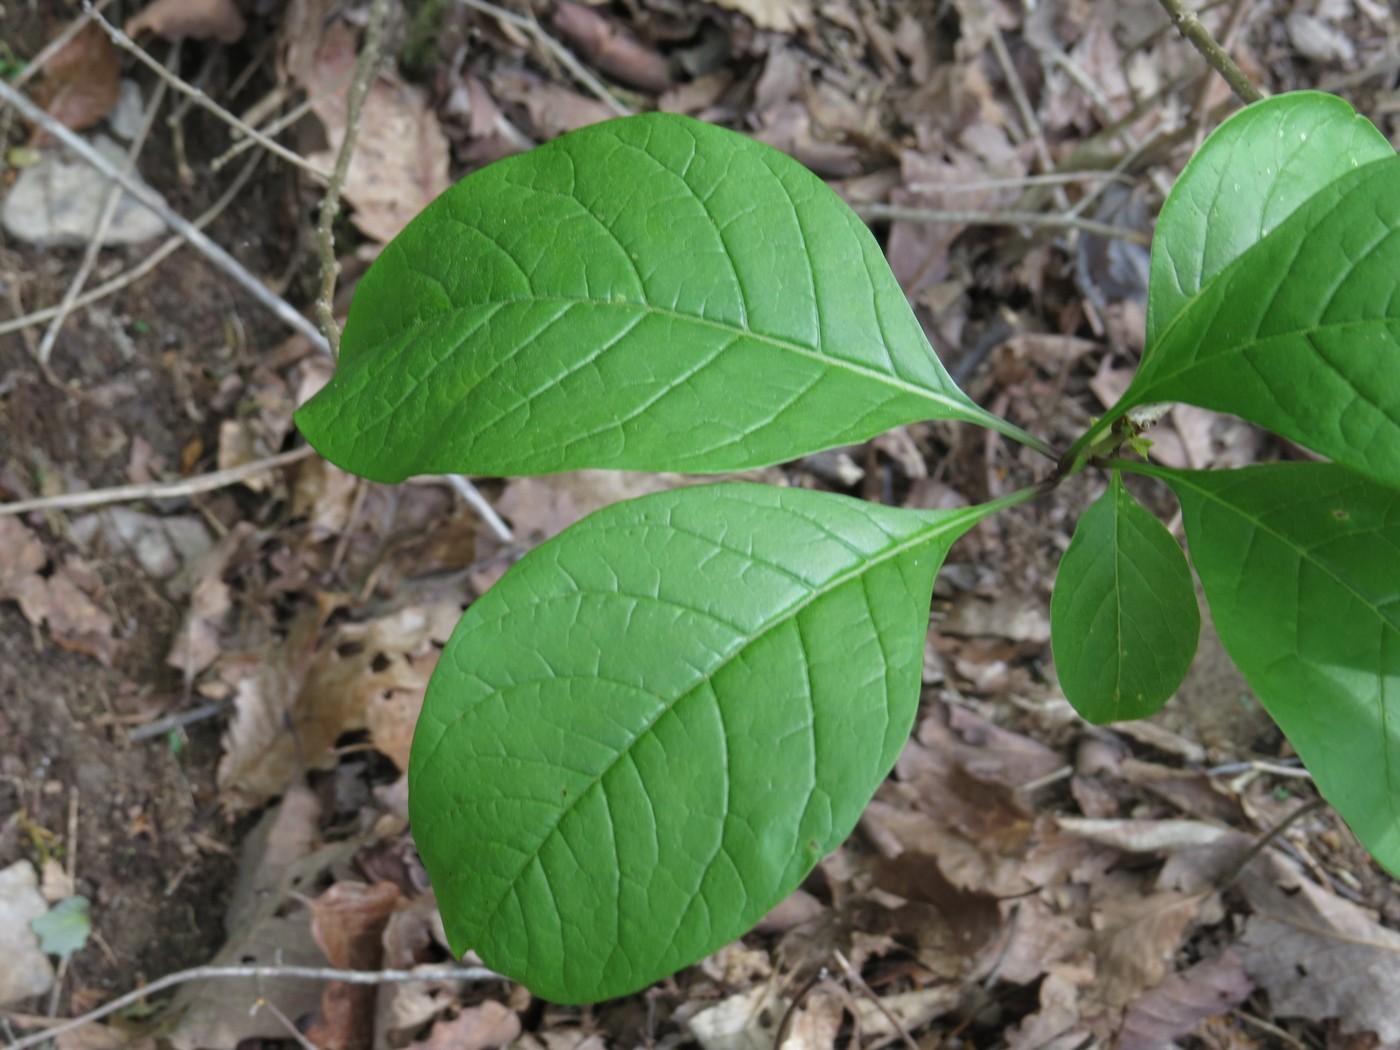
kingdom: Plantae
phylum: Tracheophyta
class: Magnoliopsida
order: Lamiales
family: Oleaceae
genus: Chionanthus
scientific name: Chionanthus virginicus
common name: American fringetree
